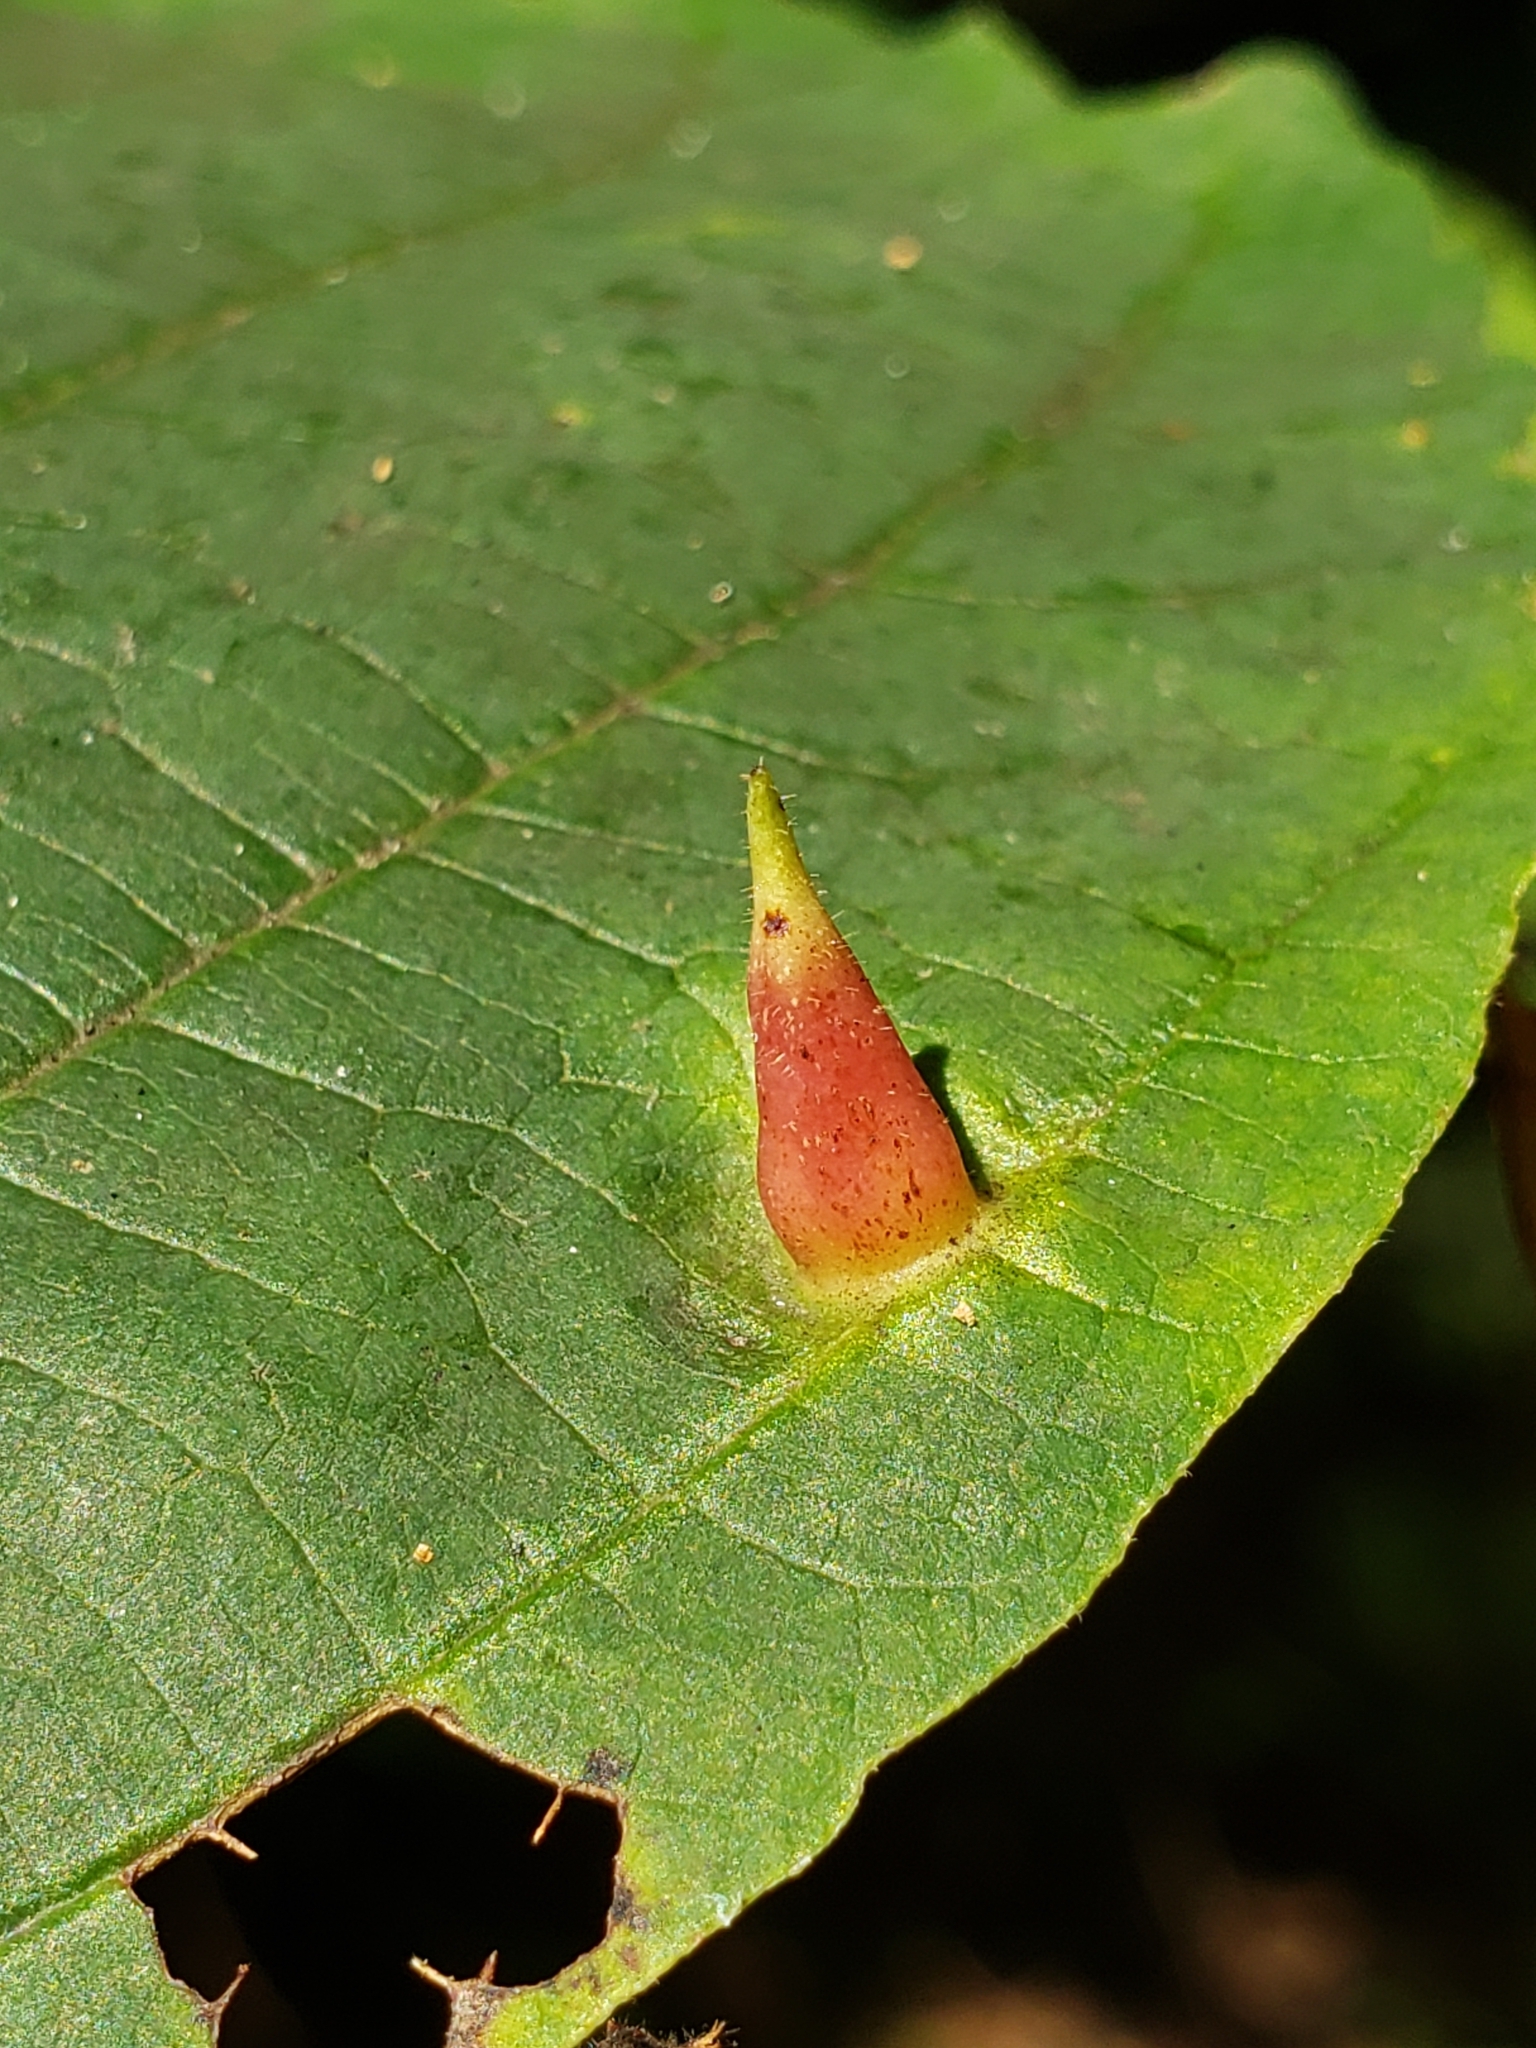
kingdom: Animalia
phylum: Arthropoda
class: Insecta
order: Hemiptera
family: Aphididae
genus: Hormaphis
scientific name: Hormaphis hamamelidis
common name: Witch-hazel cone gall aphid
